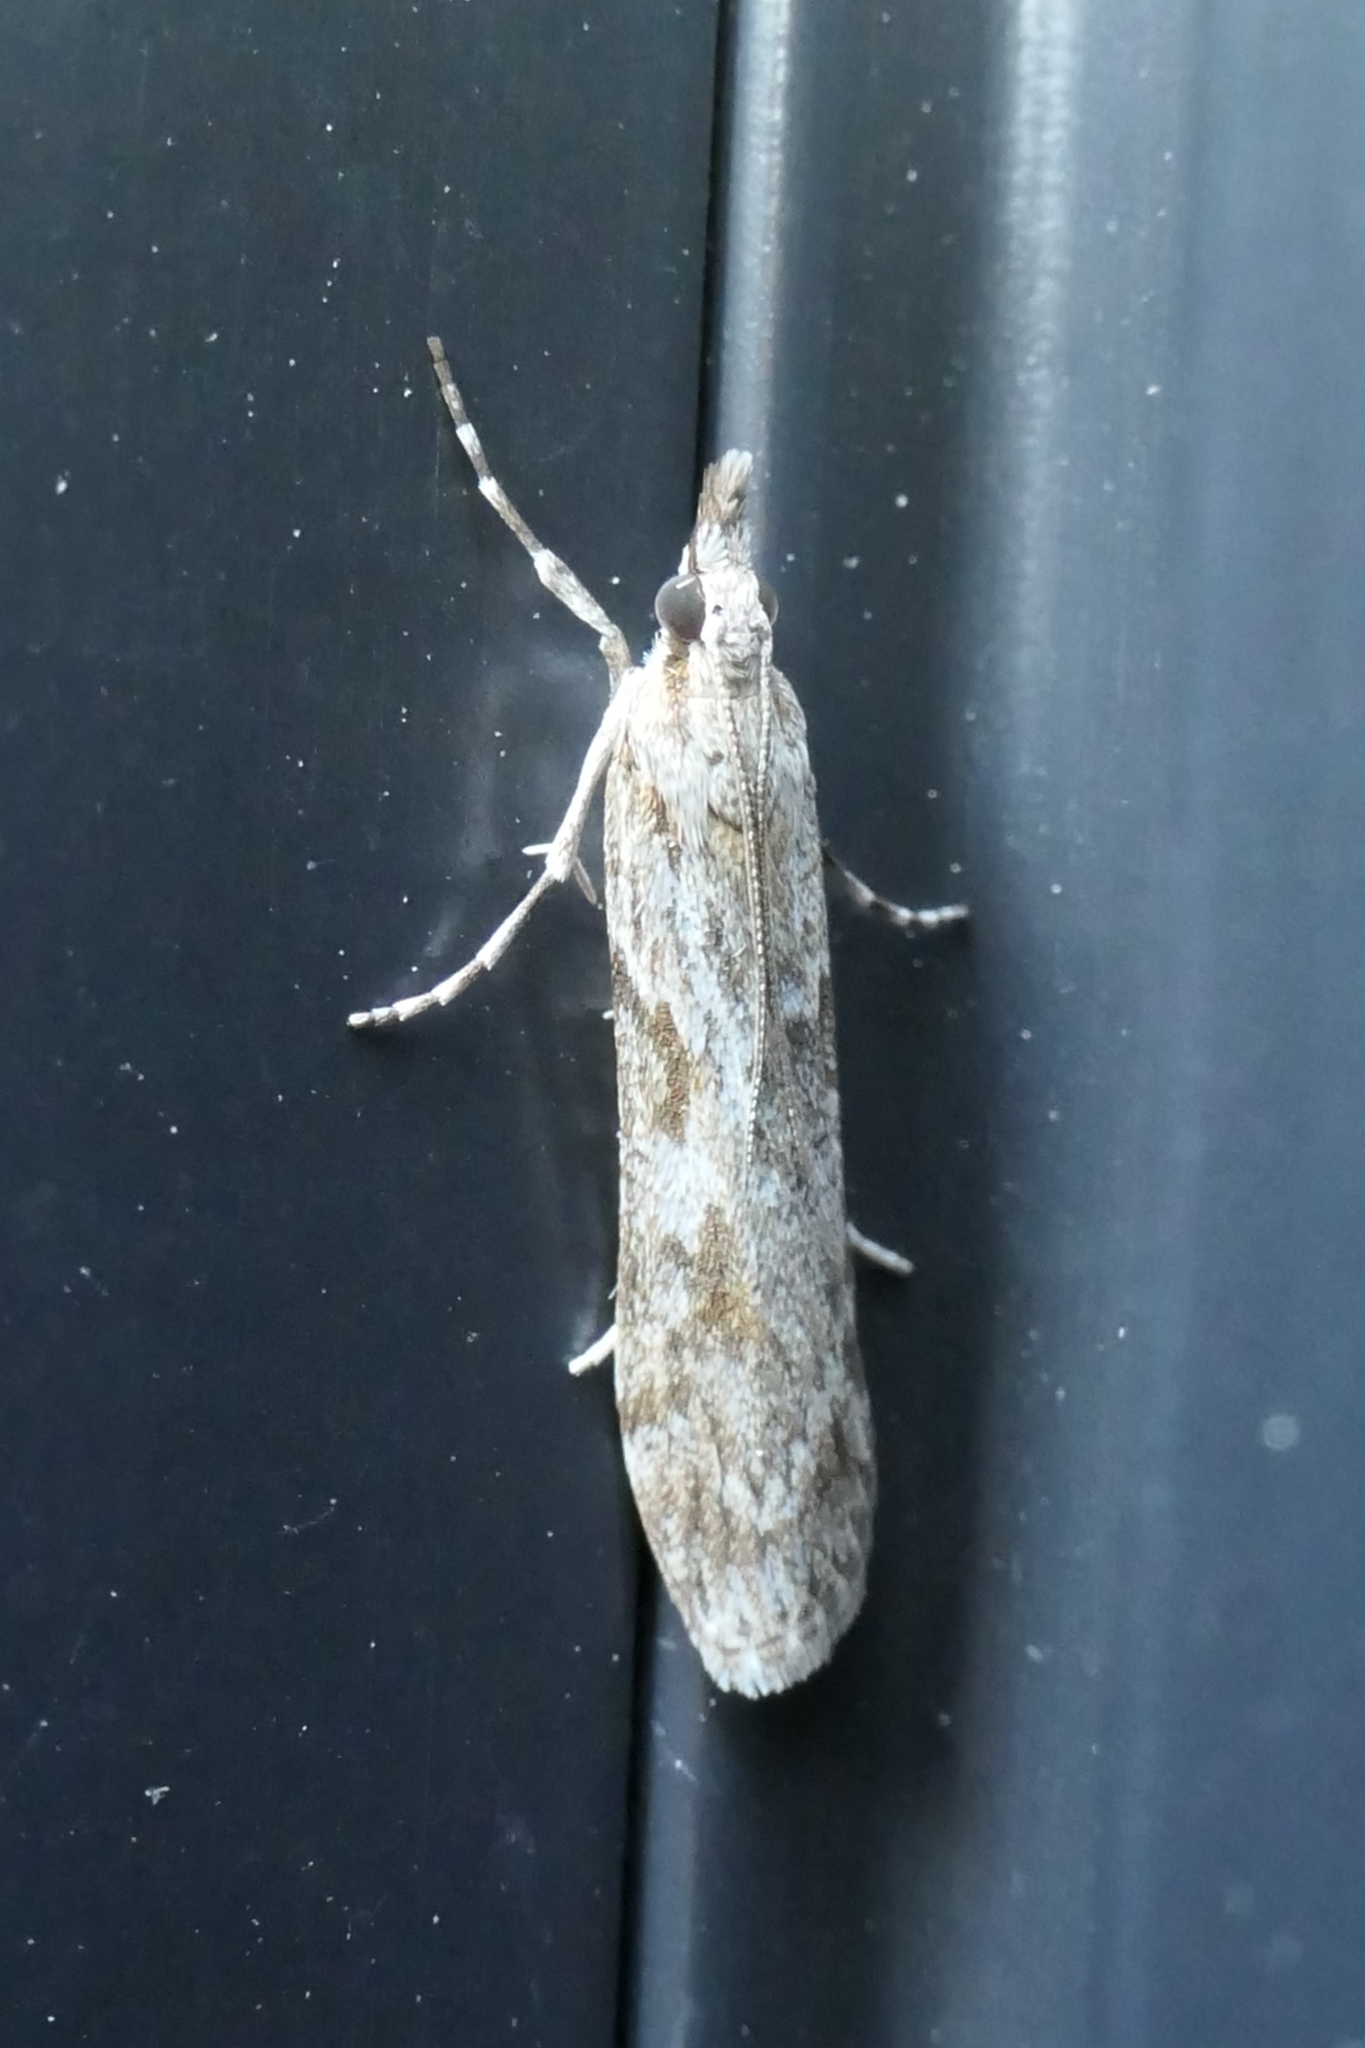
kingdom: Animalia
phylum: Arthropoda
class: Insecta
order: Lepidoptera
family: Crambidae
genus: Scoparia
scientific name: Scoparia halopis
